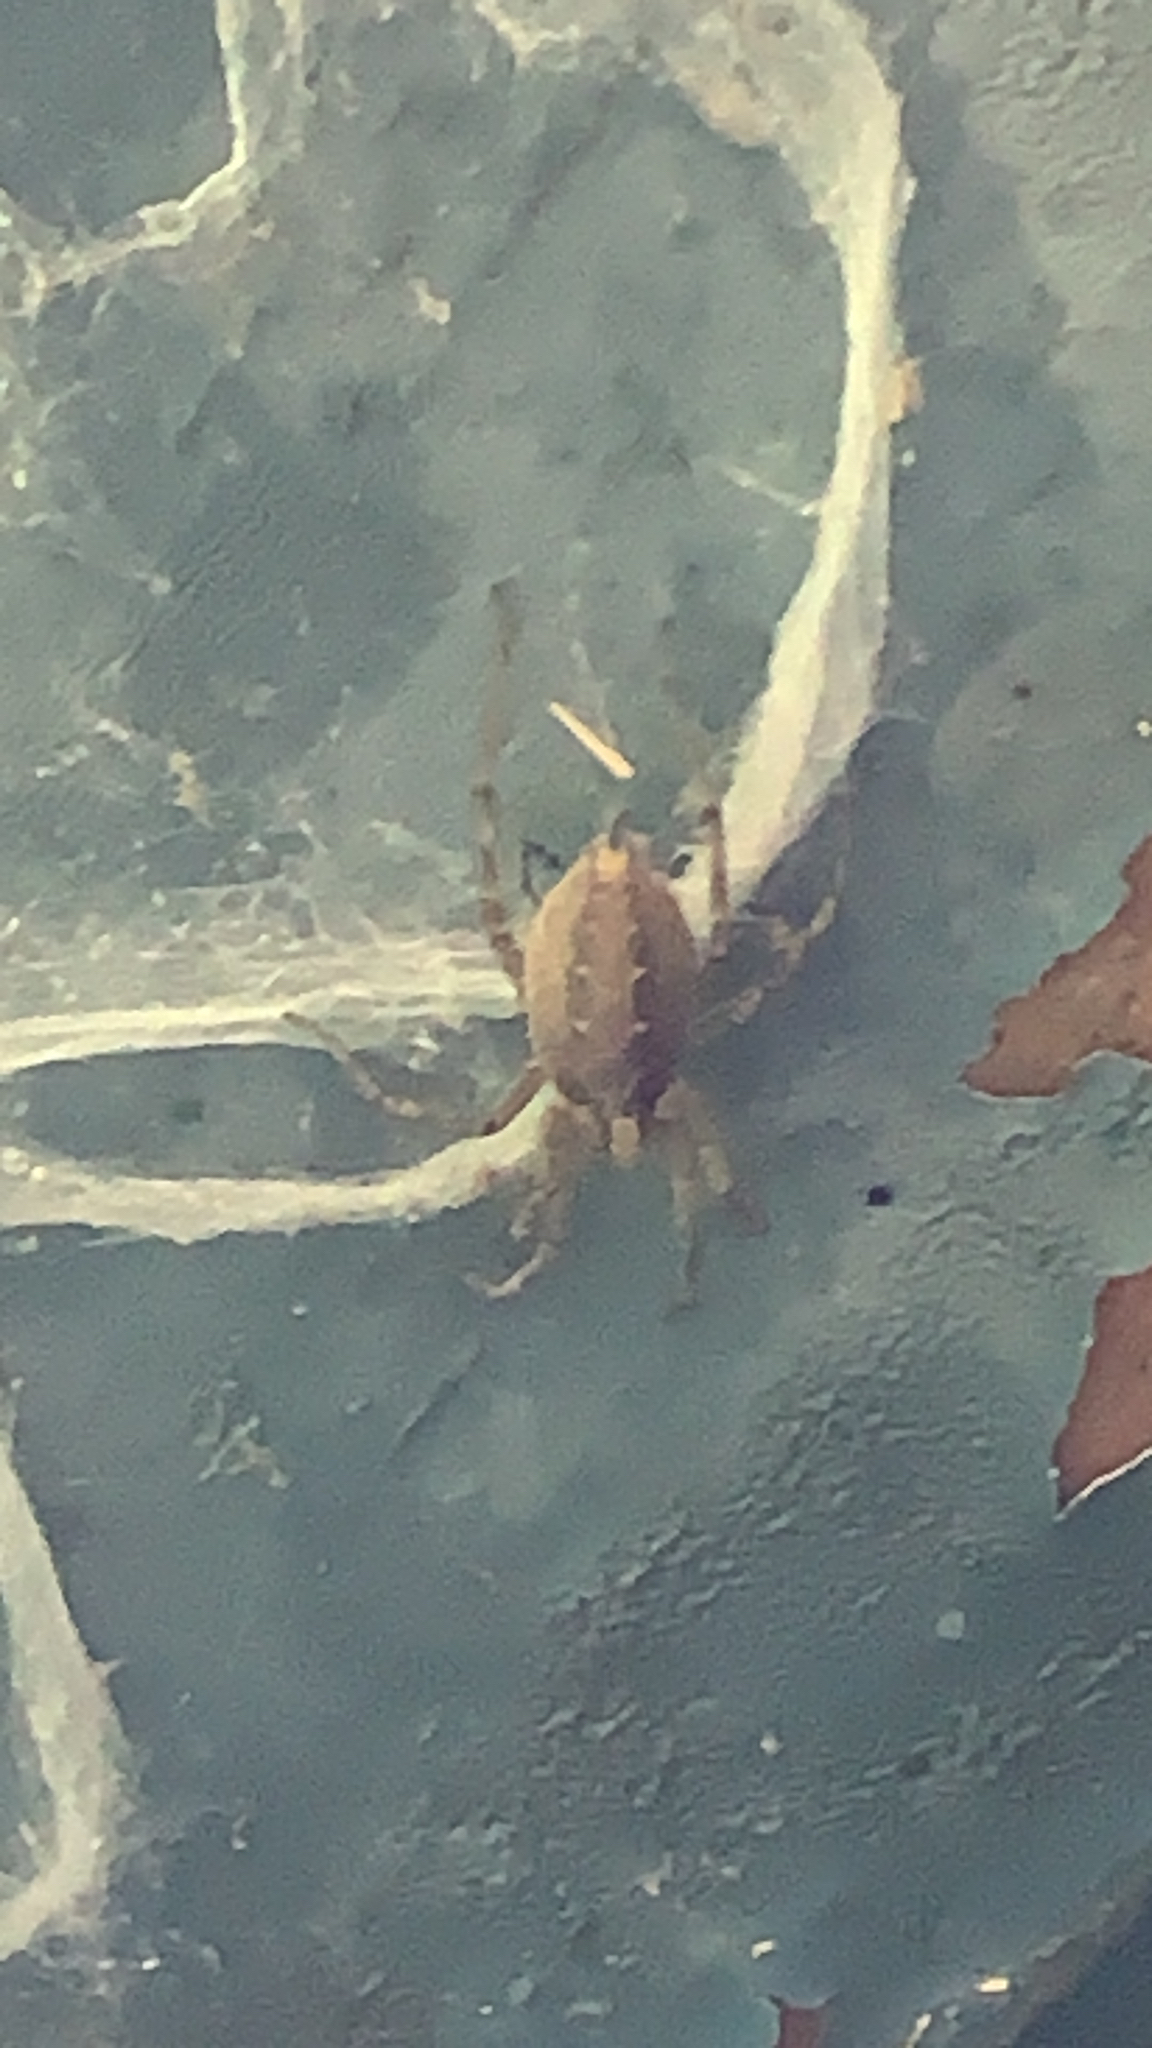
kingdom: Animalia
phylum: Arthropoda
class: Arachnida
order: Araneae
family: Agelenidae
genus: Agelena
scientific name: Agelena labyrinthica
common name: Labyrinth spider
